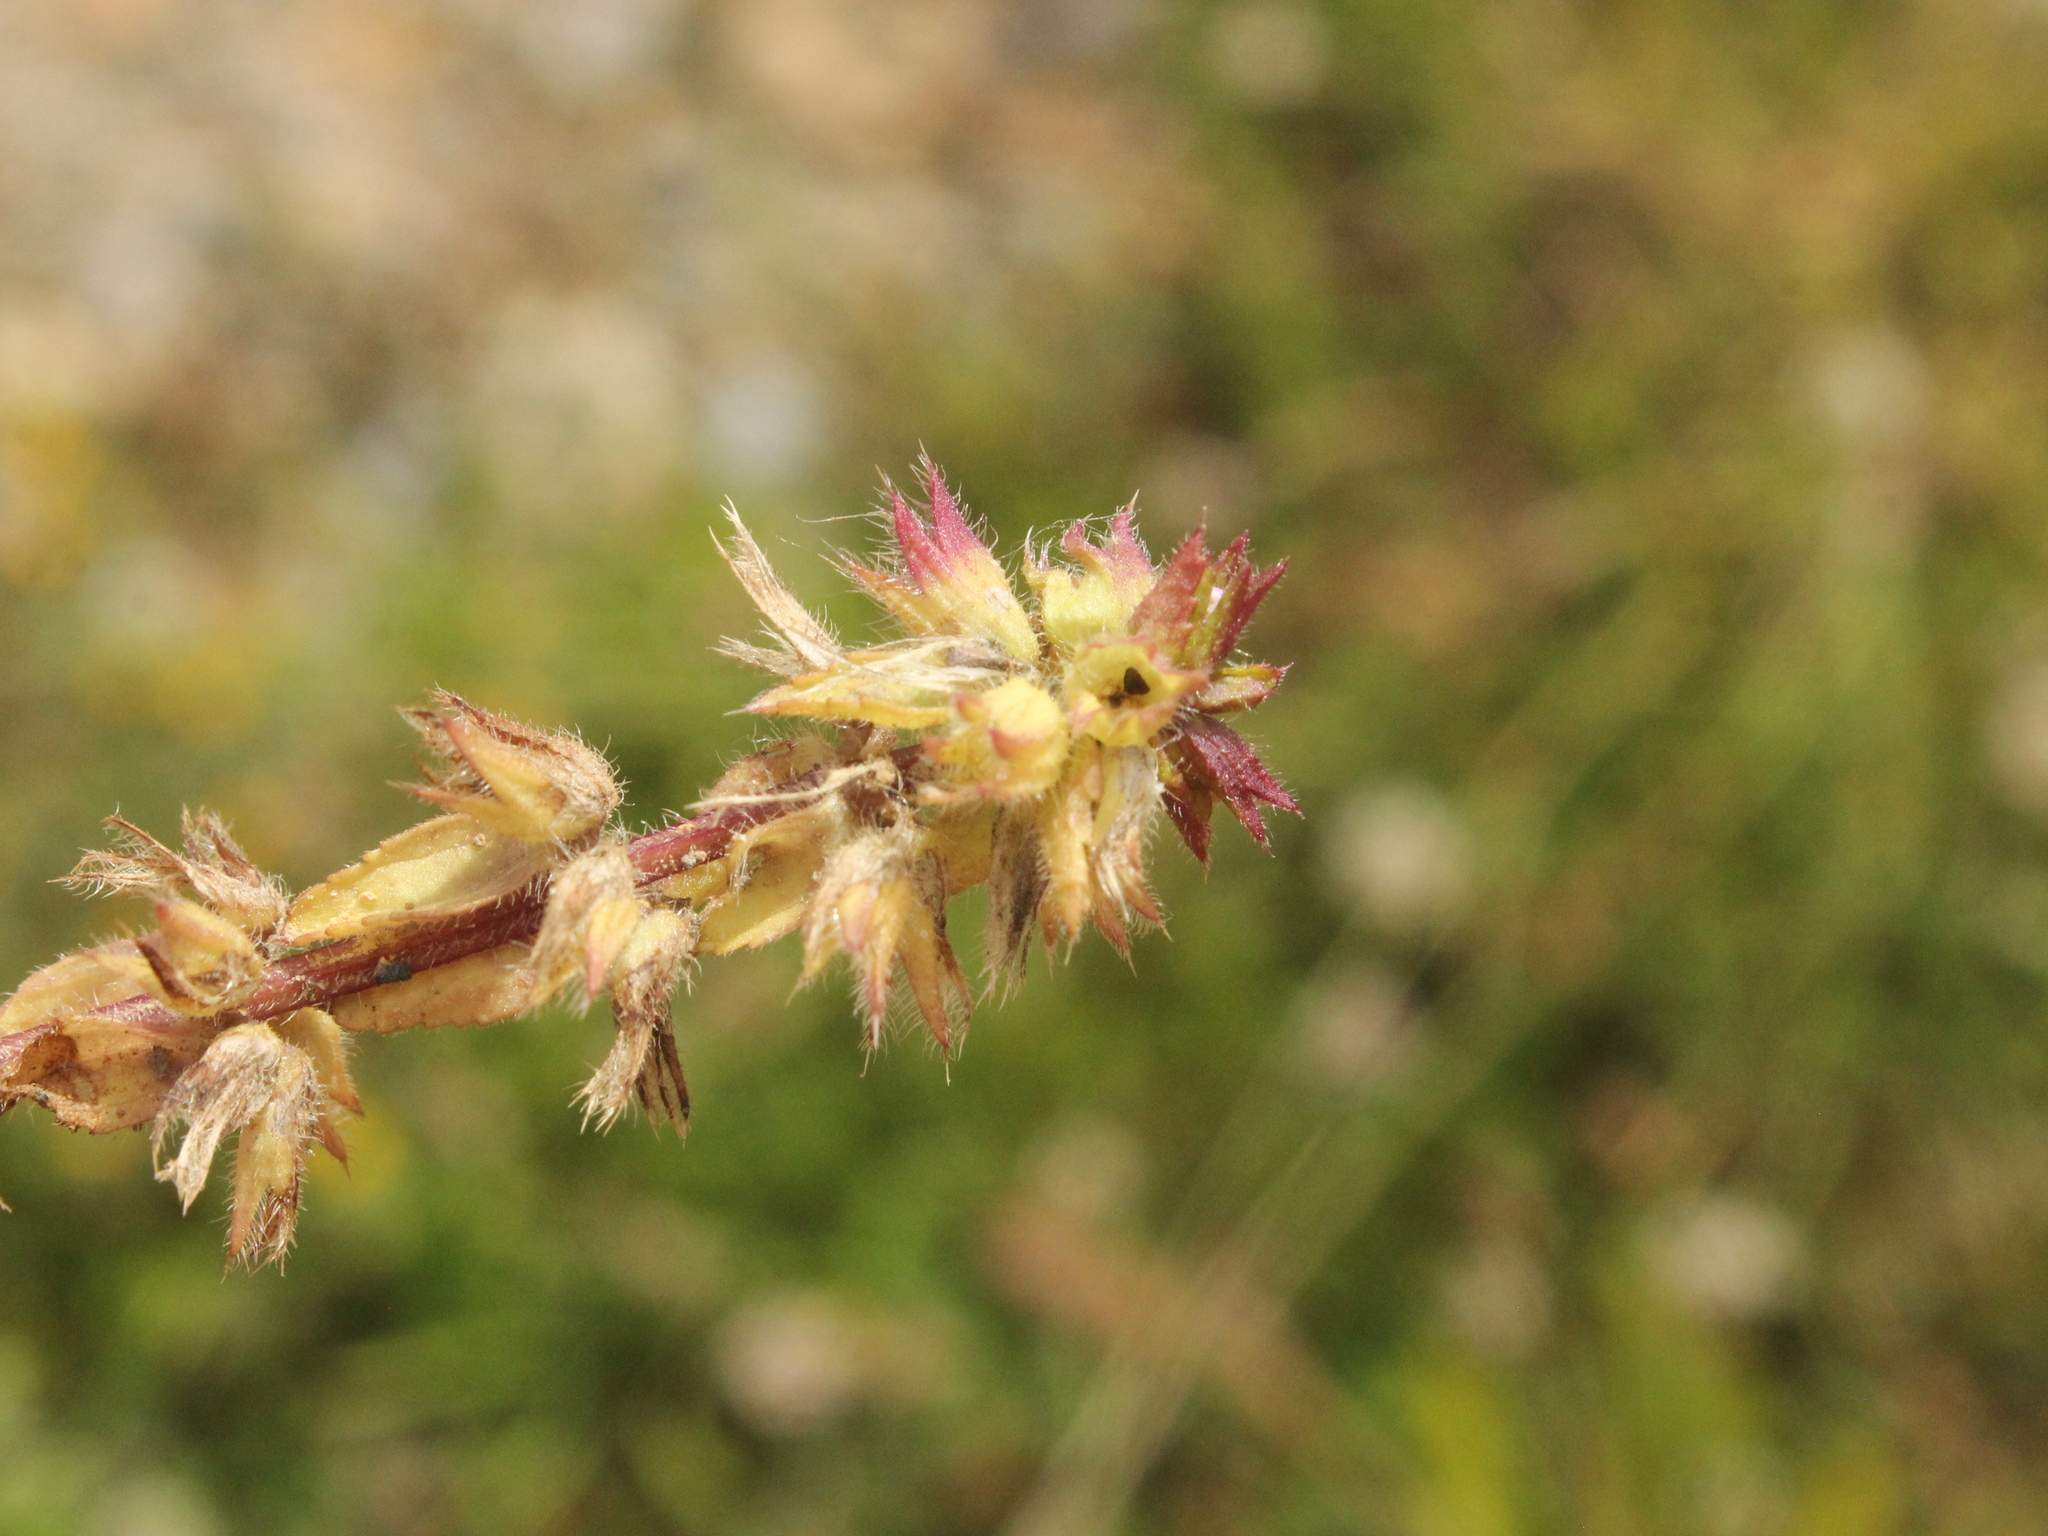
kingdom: Plantae
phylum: Tracheophyta
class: Magnoliopsida
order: Lamiales
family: Lamiaceae
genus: Stachys
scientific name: Stachys arvensis
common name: Field woundwort
